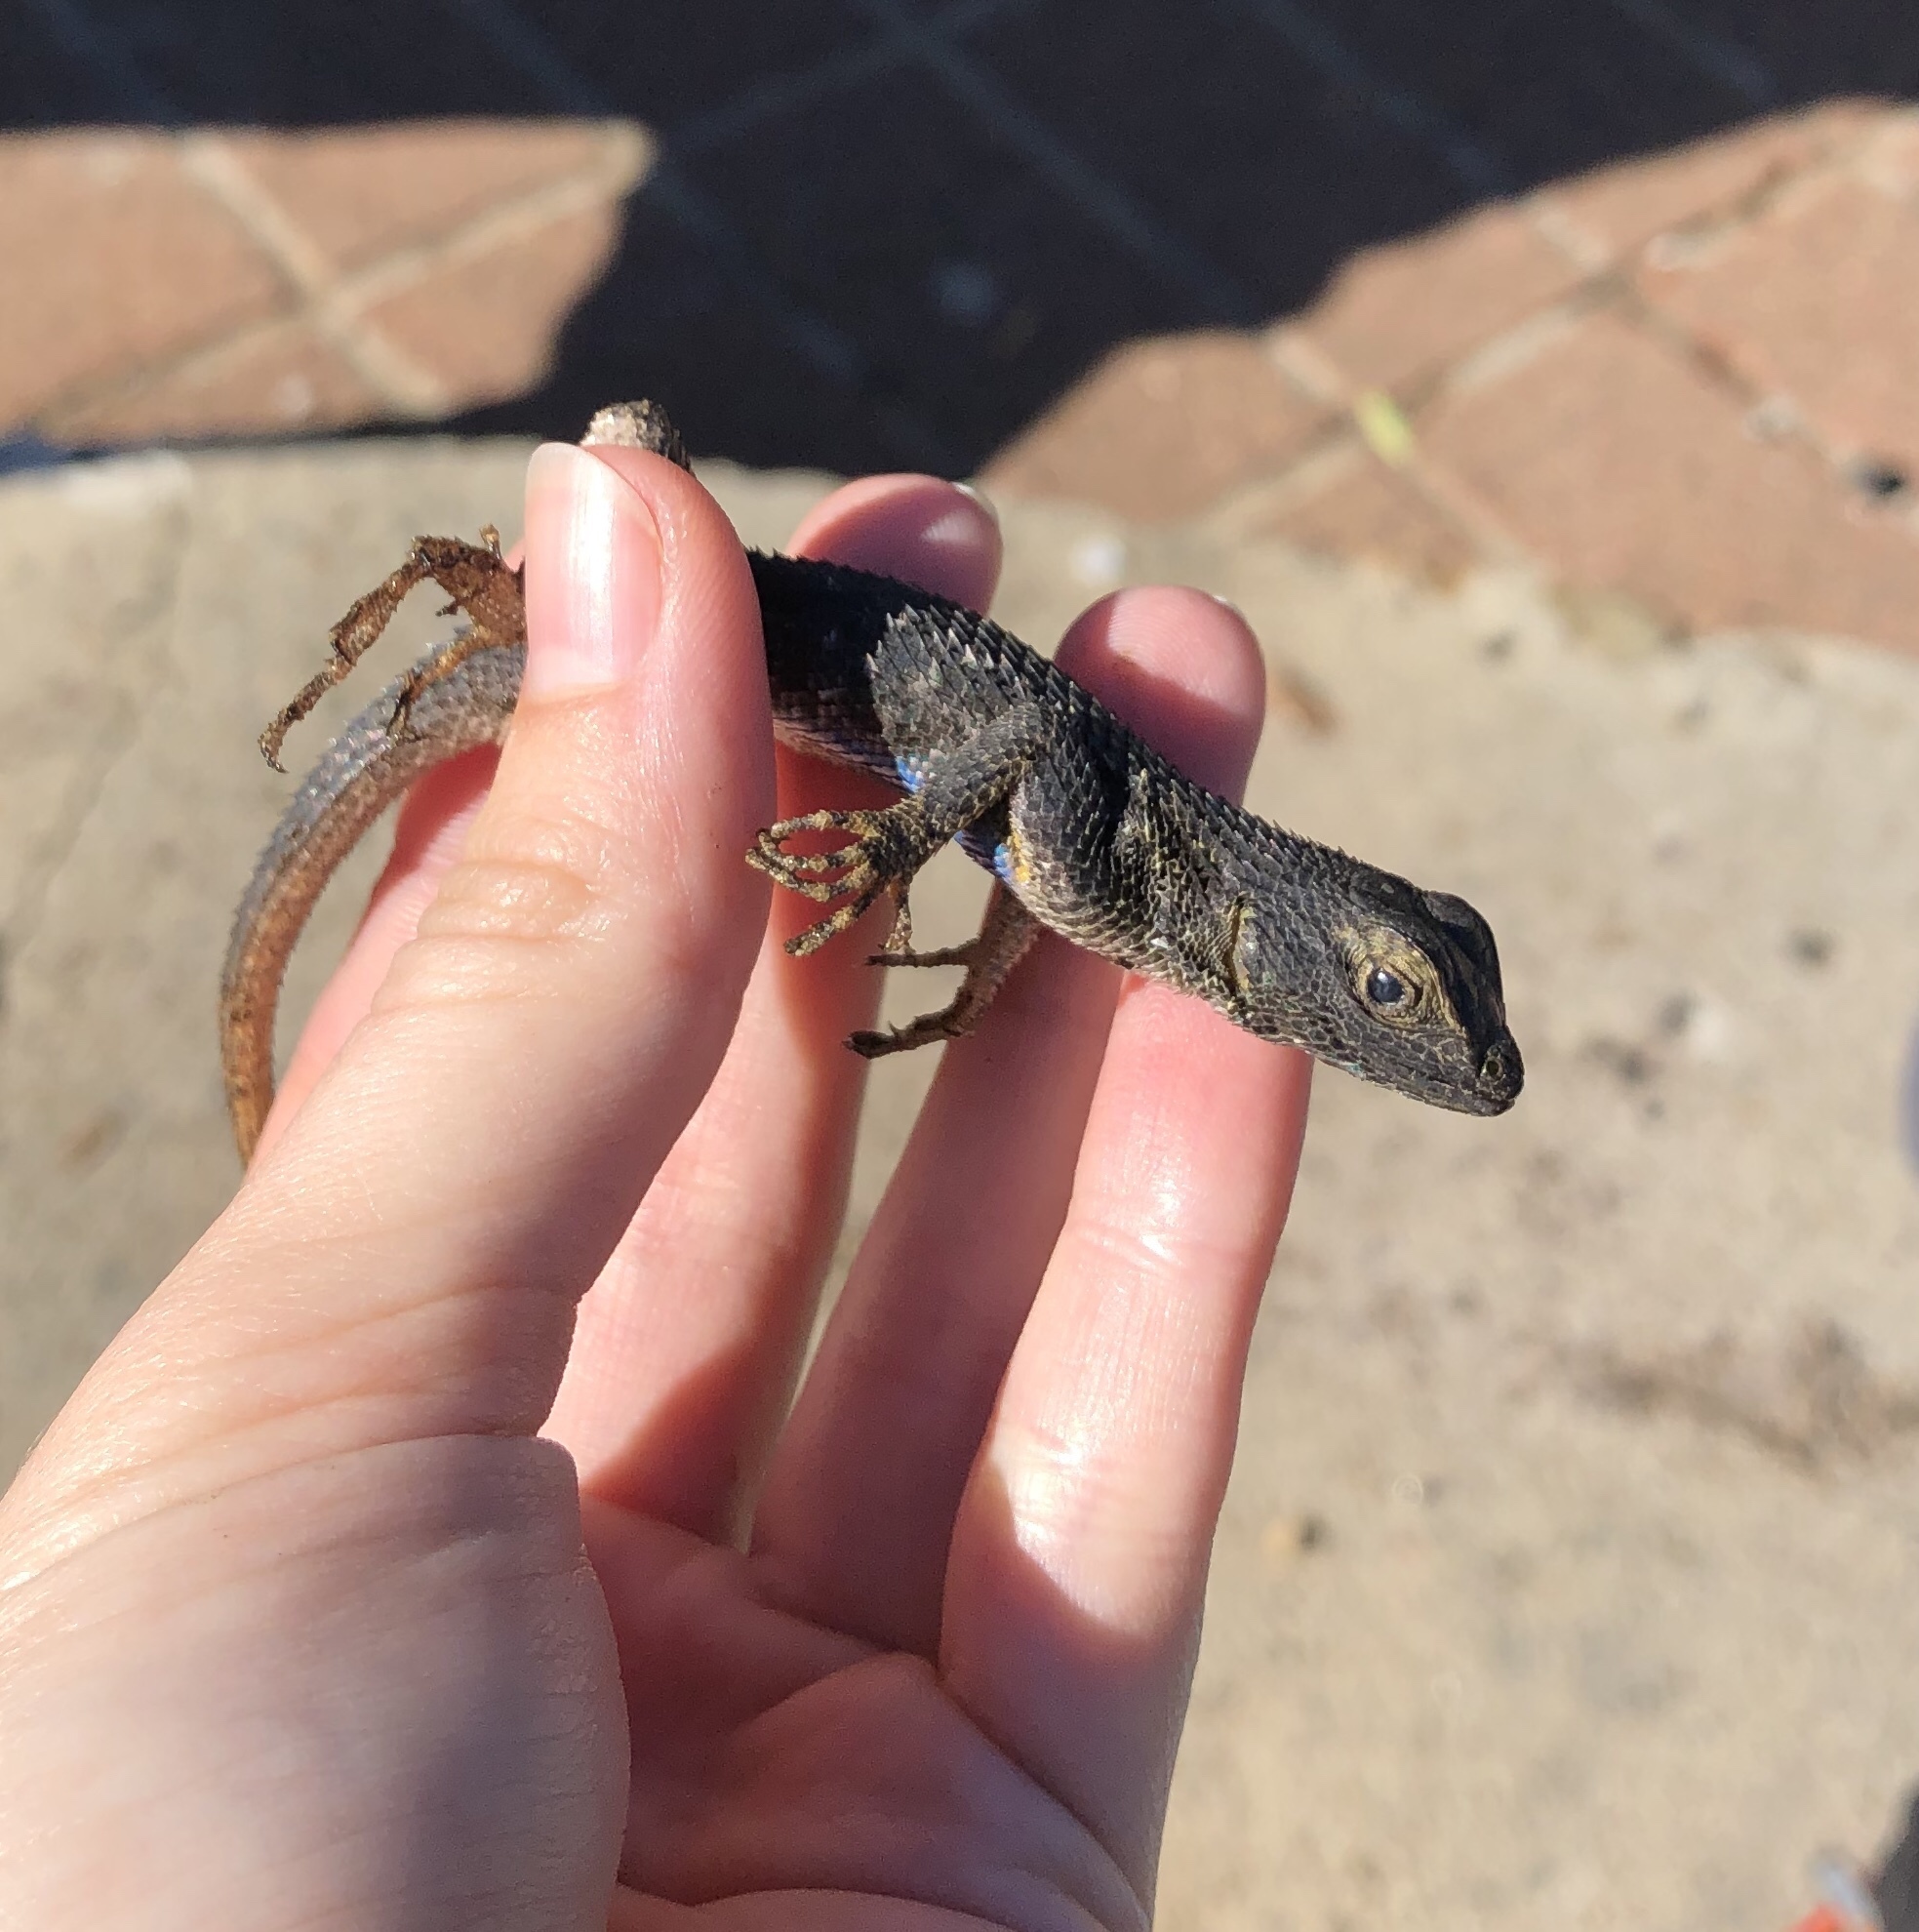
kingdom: Animalia
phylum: Chordata
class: Squamata
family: Phrynosomatidae
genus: Sceloporus
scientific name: Sceloporus occidentalis
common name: Western fence lizard
